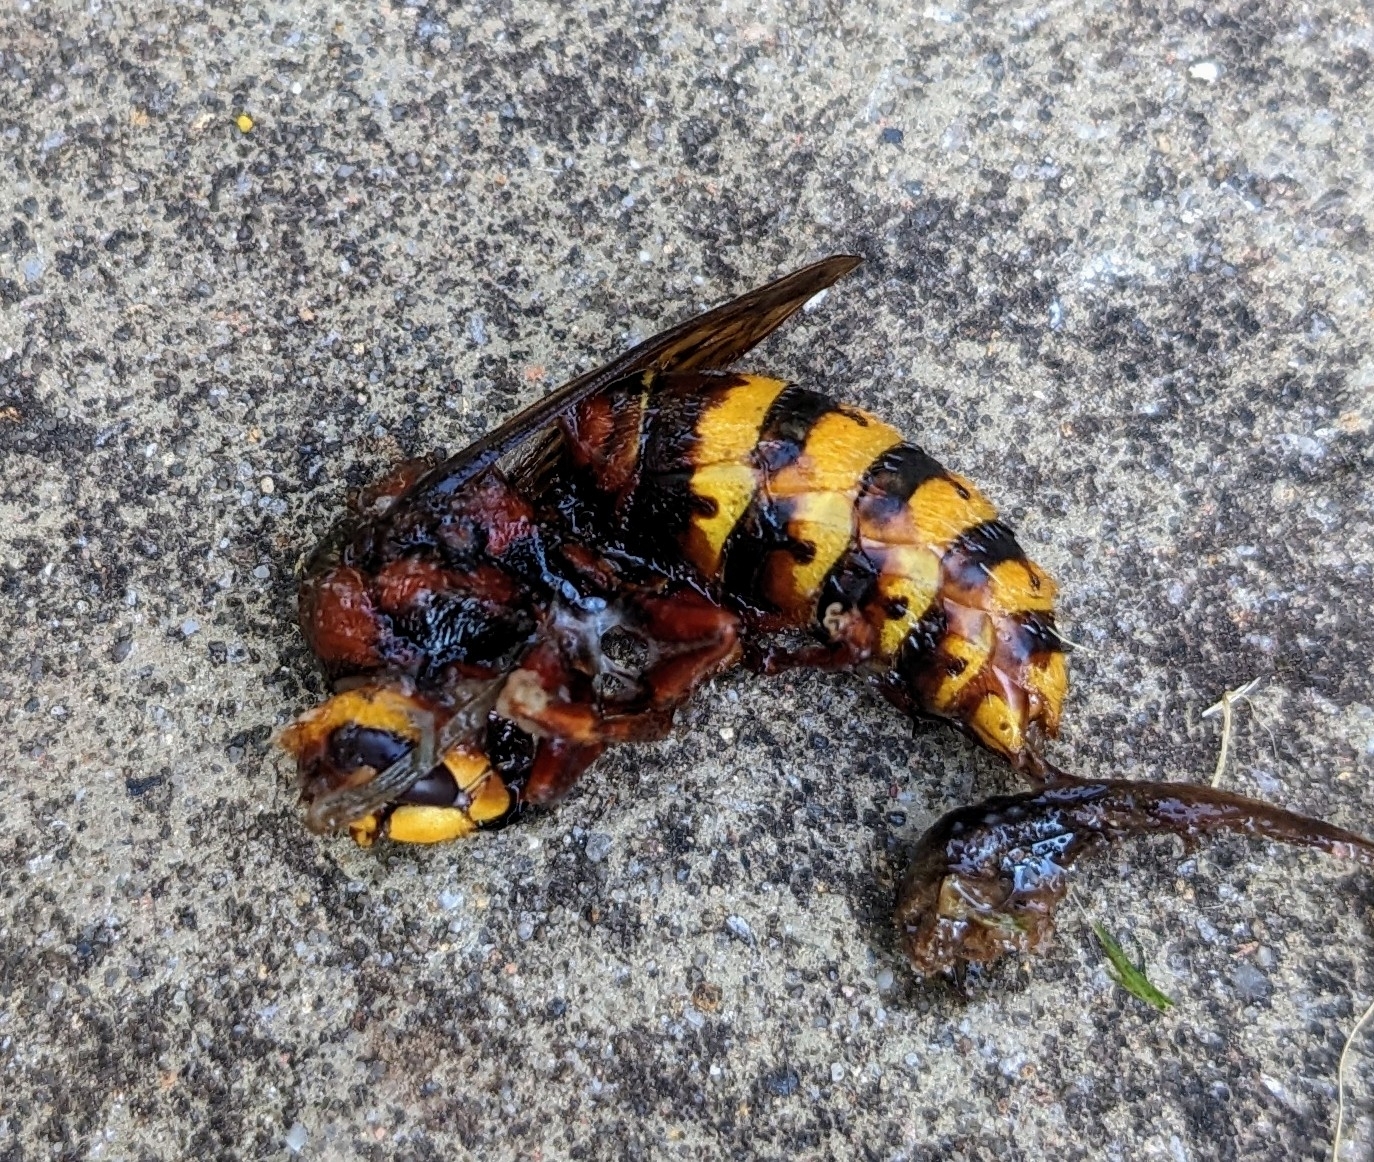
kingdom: Animalia
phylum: Arthropoda
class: Insecta
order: Hymenoptera
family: Vespidae
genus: Vespa
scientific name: Vespa crabro
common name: Hornet
